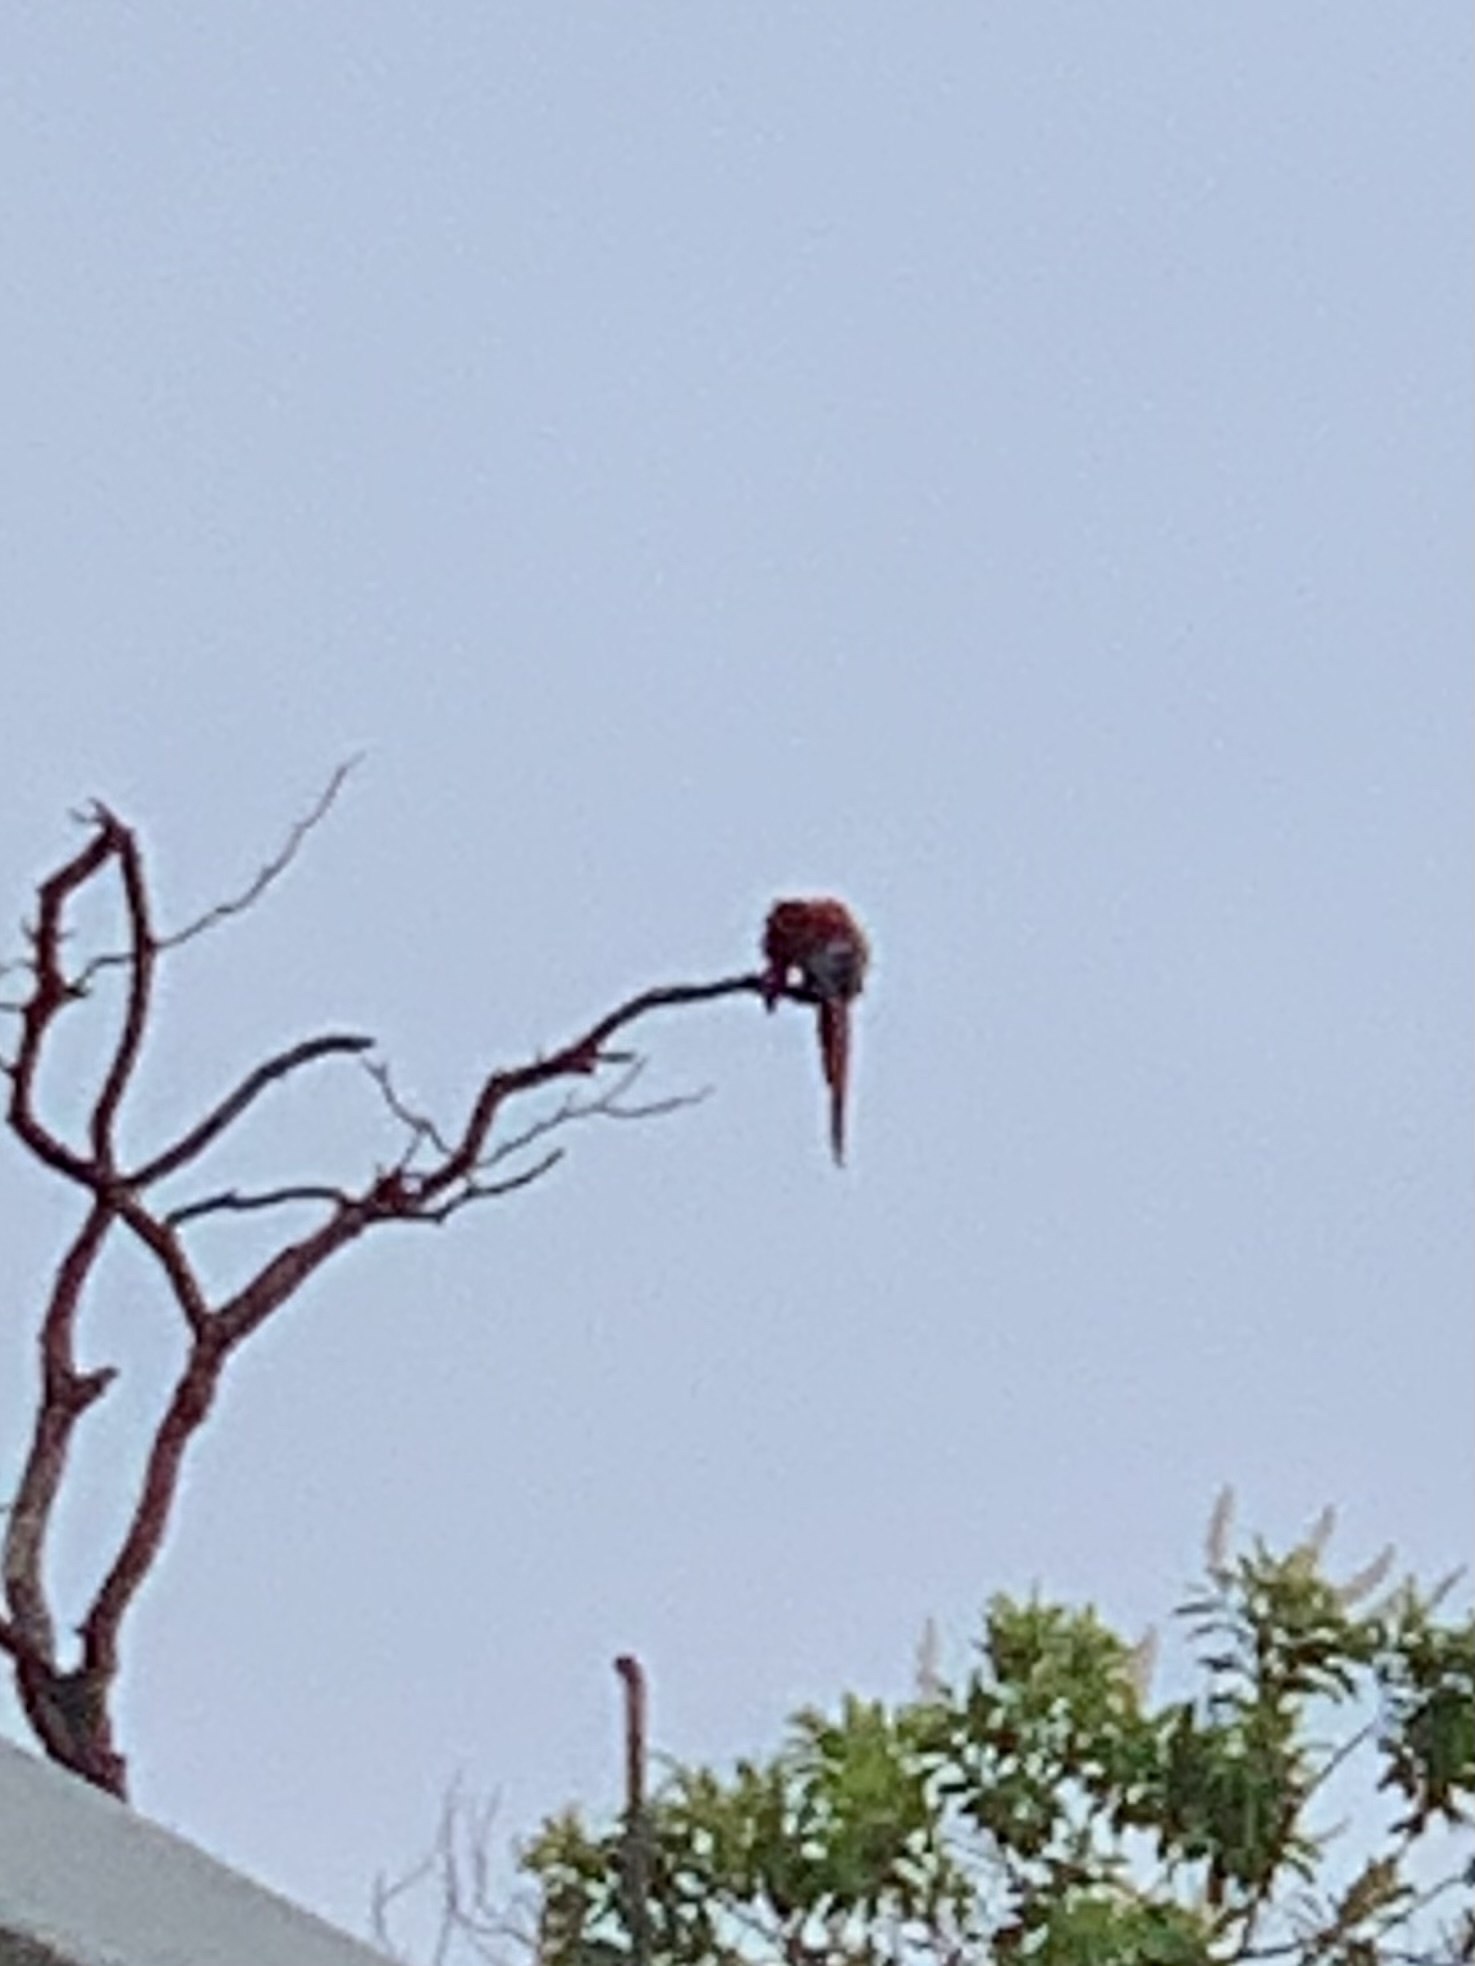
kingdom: Animalia
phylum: Chordata
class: Aves
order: Psittaciformes
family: Psittacidae
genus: Ara
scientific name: Ara macao
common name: Scarlet macaw
